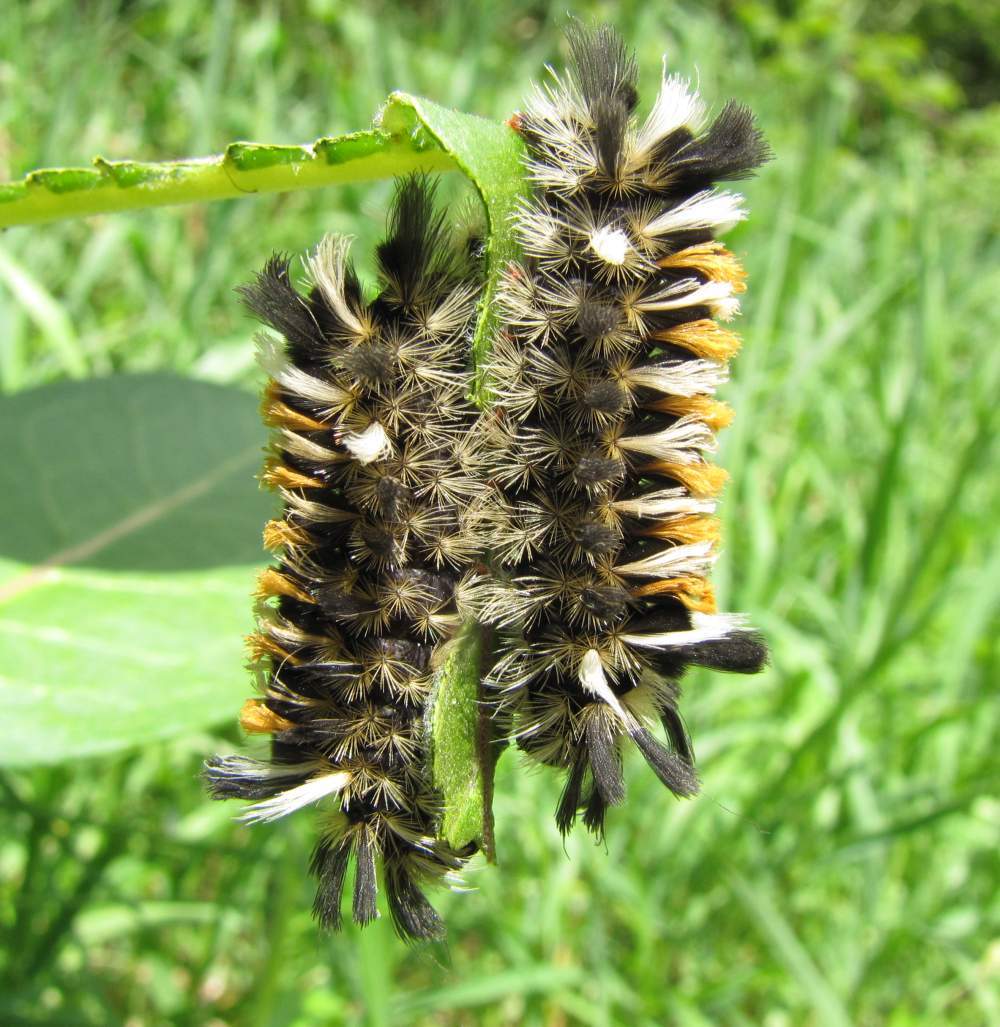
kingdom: Animalia
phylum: Arthropoda
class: Insecta
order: Lepidoptera
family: Erebidae
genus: Euchaetes
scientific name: Euchaetes egle
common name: Milkweed tussock moth
